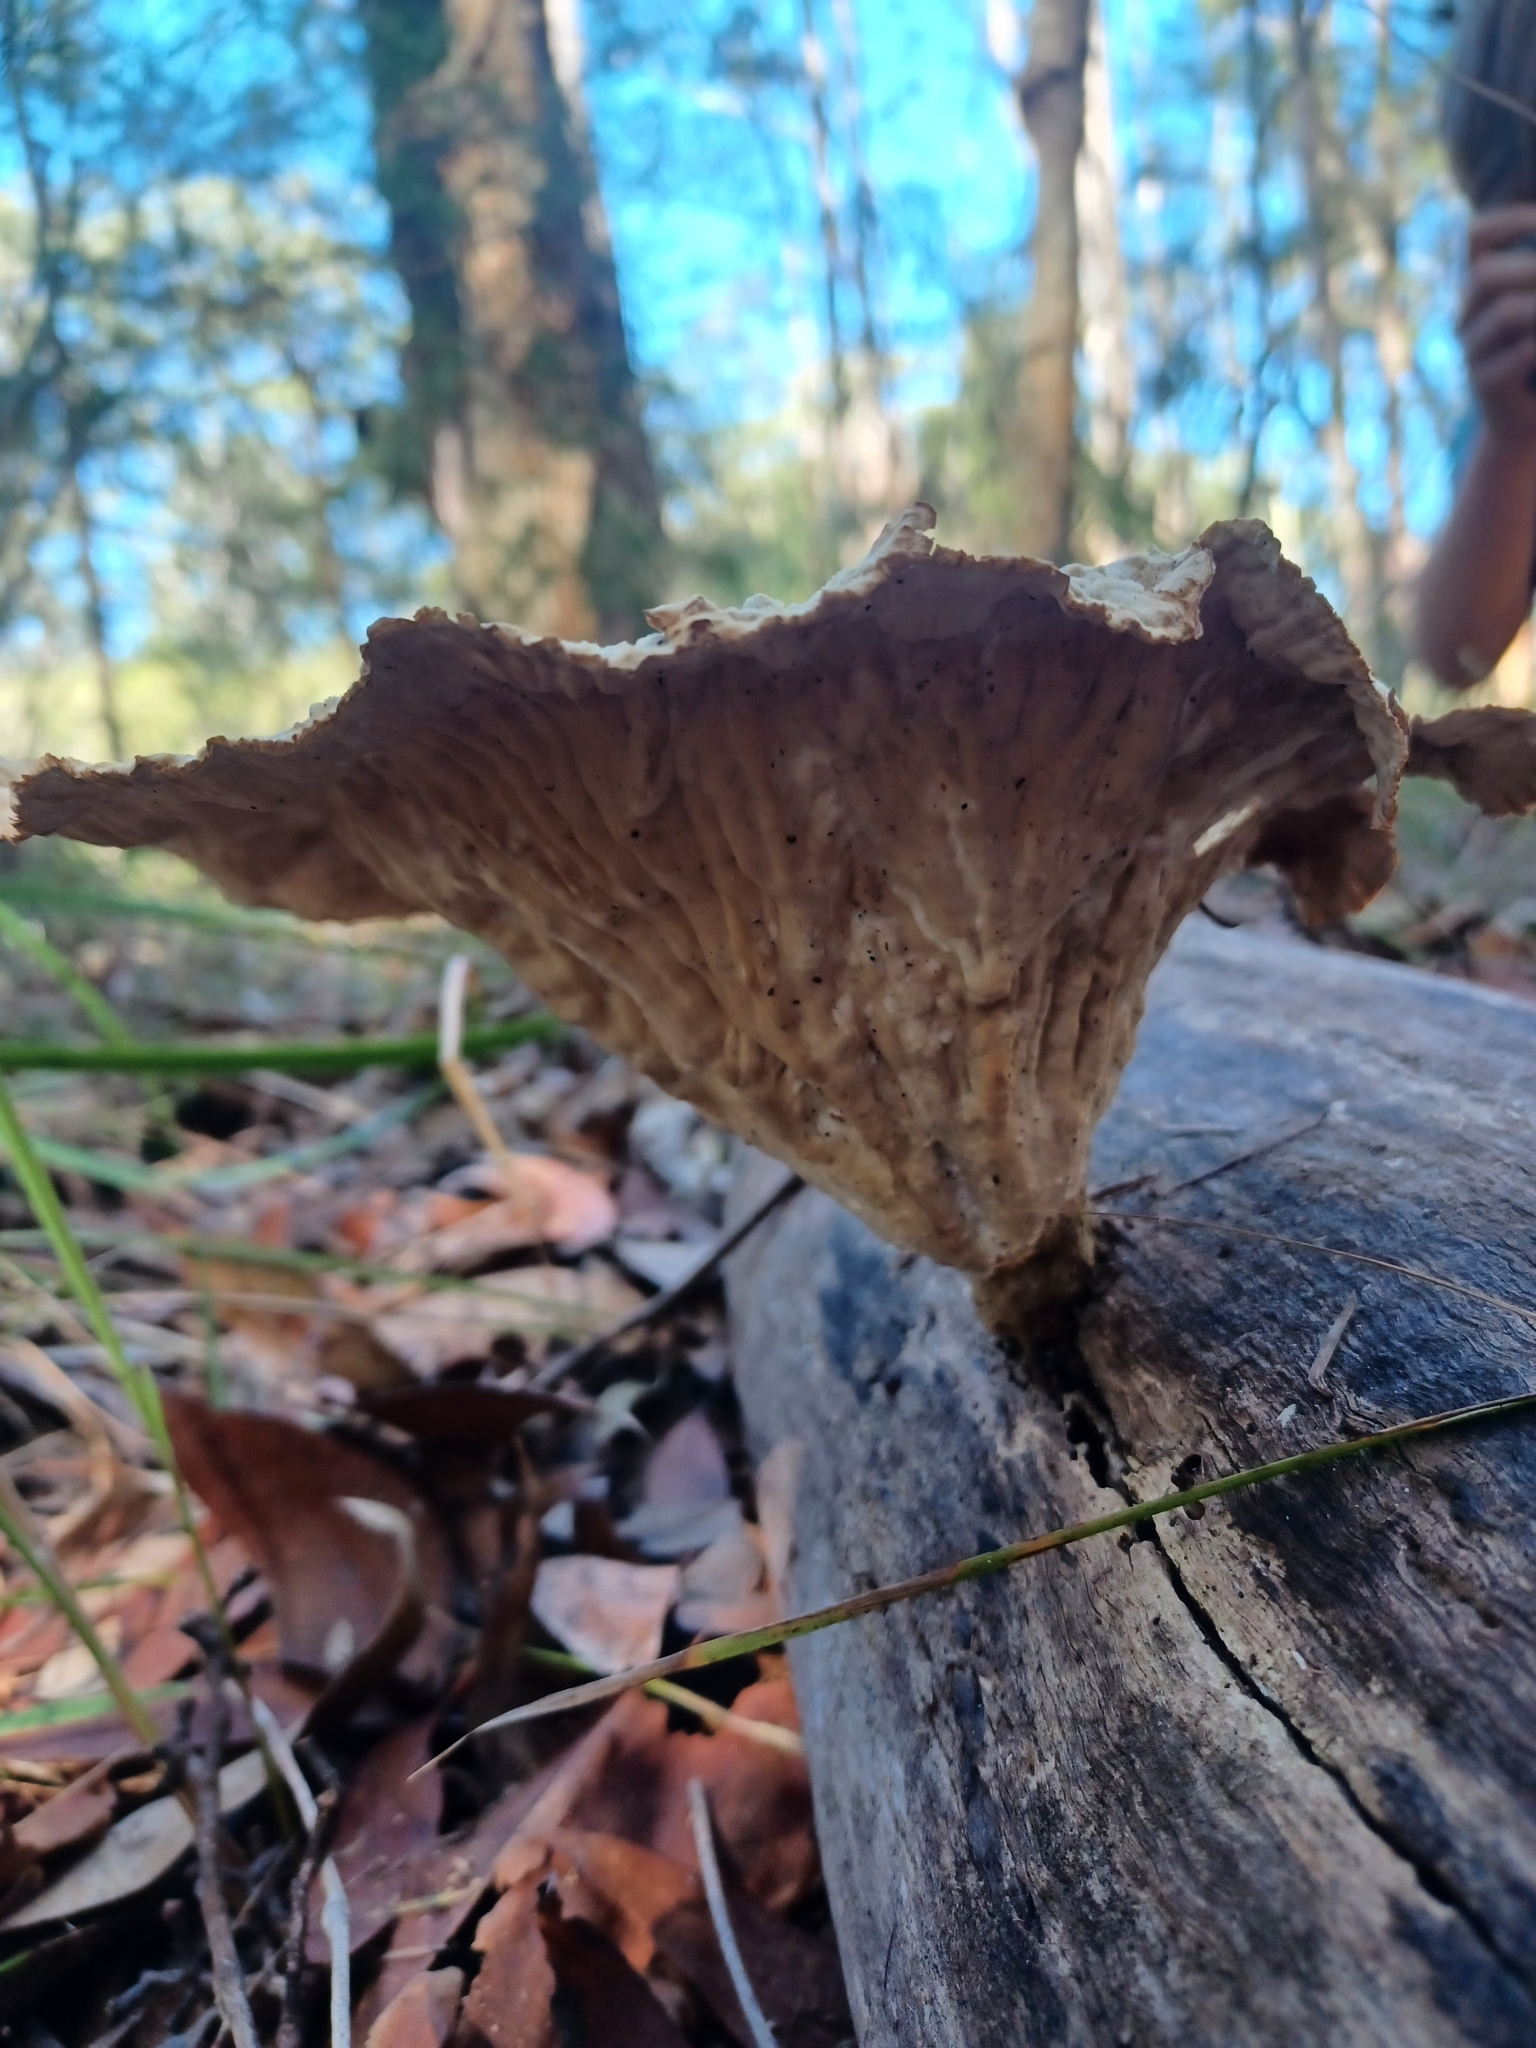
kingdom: Fungi
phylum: Basidiomycota
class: Agaricomycetes
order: Polyporales
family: Panaceae
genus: Cymatoderma
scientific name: Cymatoderma elegans
